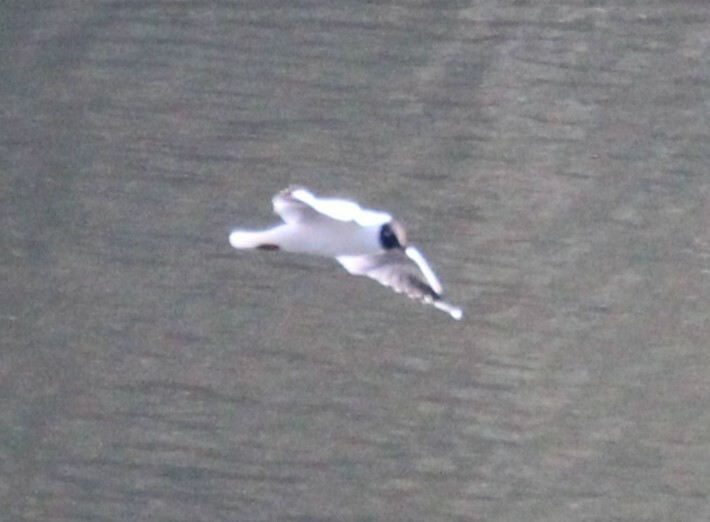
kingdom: Animalia
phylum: Chordata
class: Aves
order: Charadriiformes
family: Laridae
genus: Chroicocephalus
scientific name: Chroicocephalus serranus
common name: Andean gull
